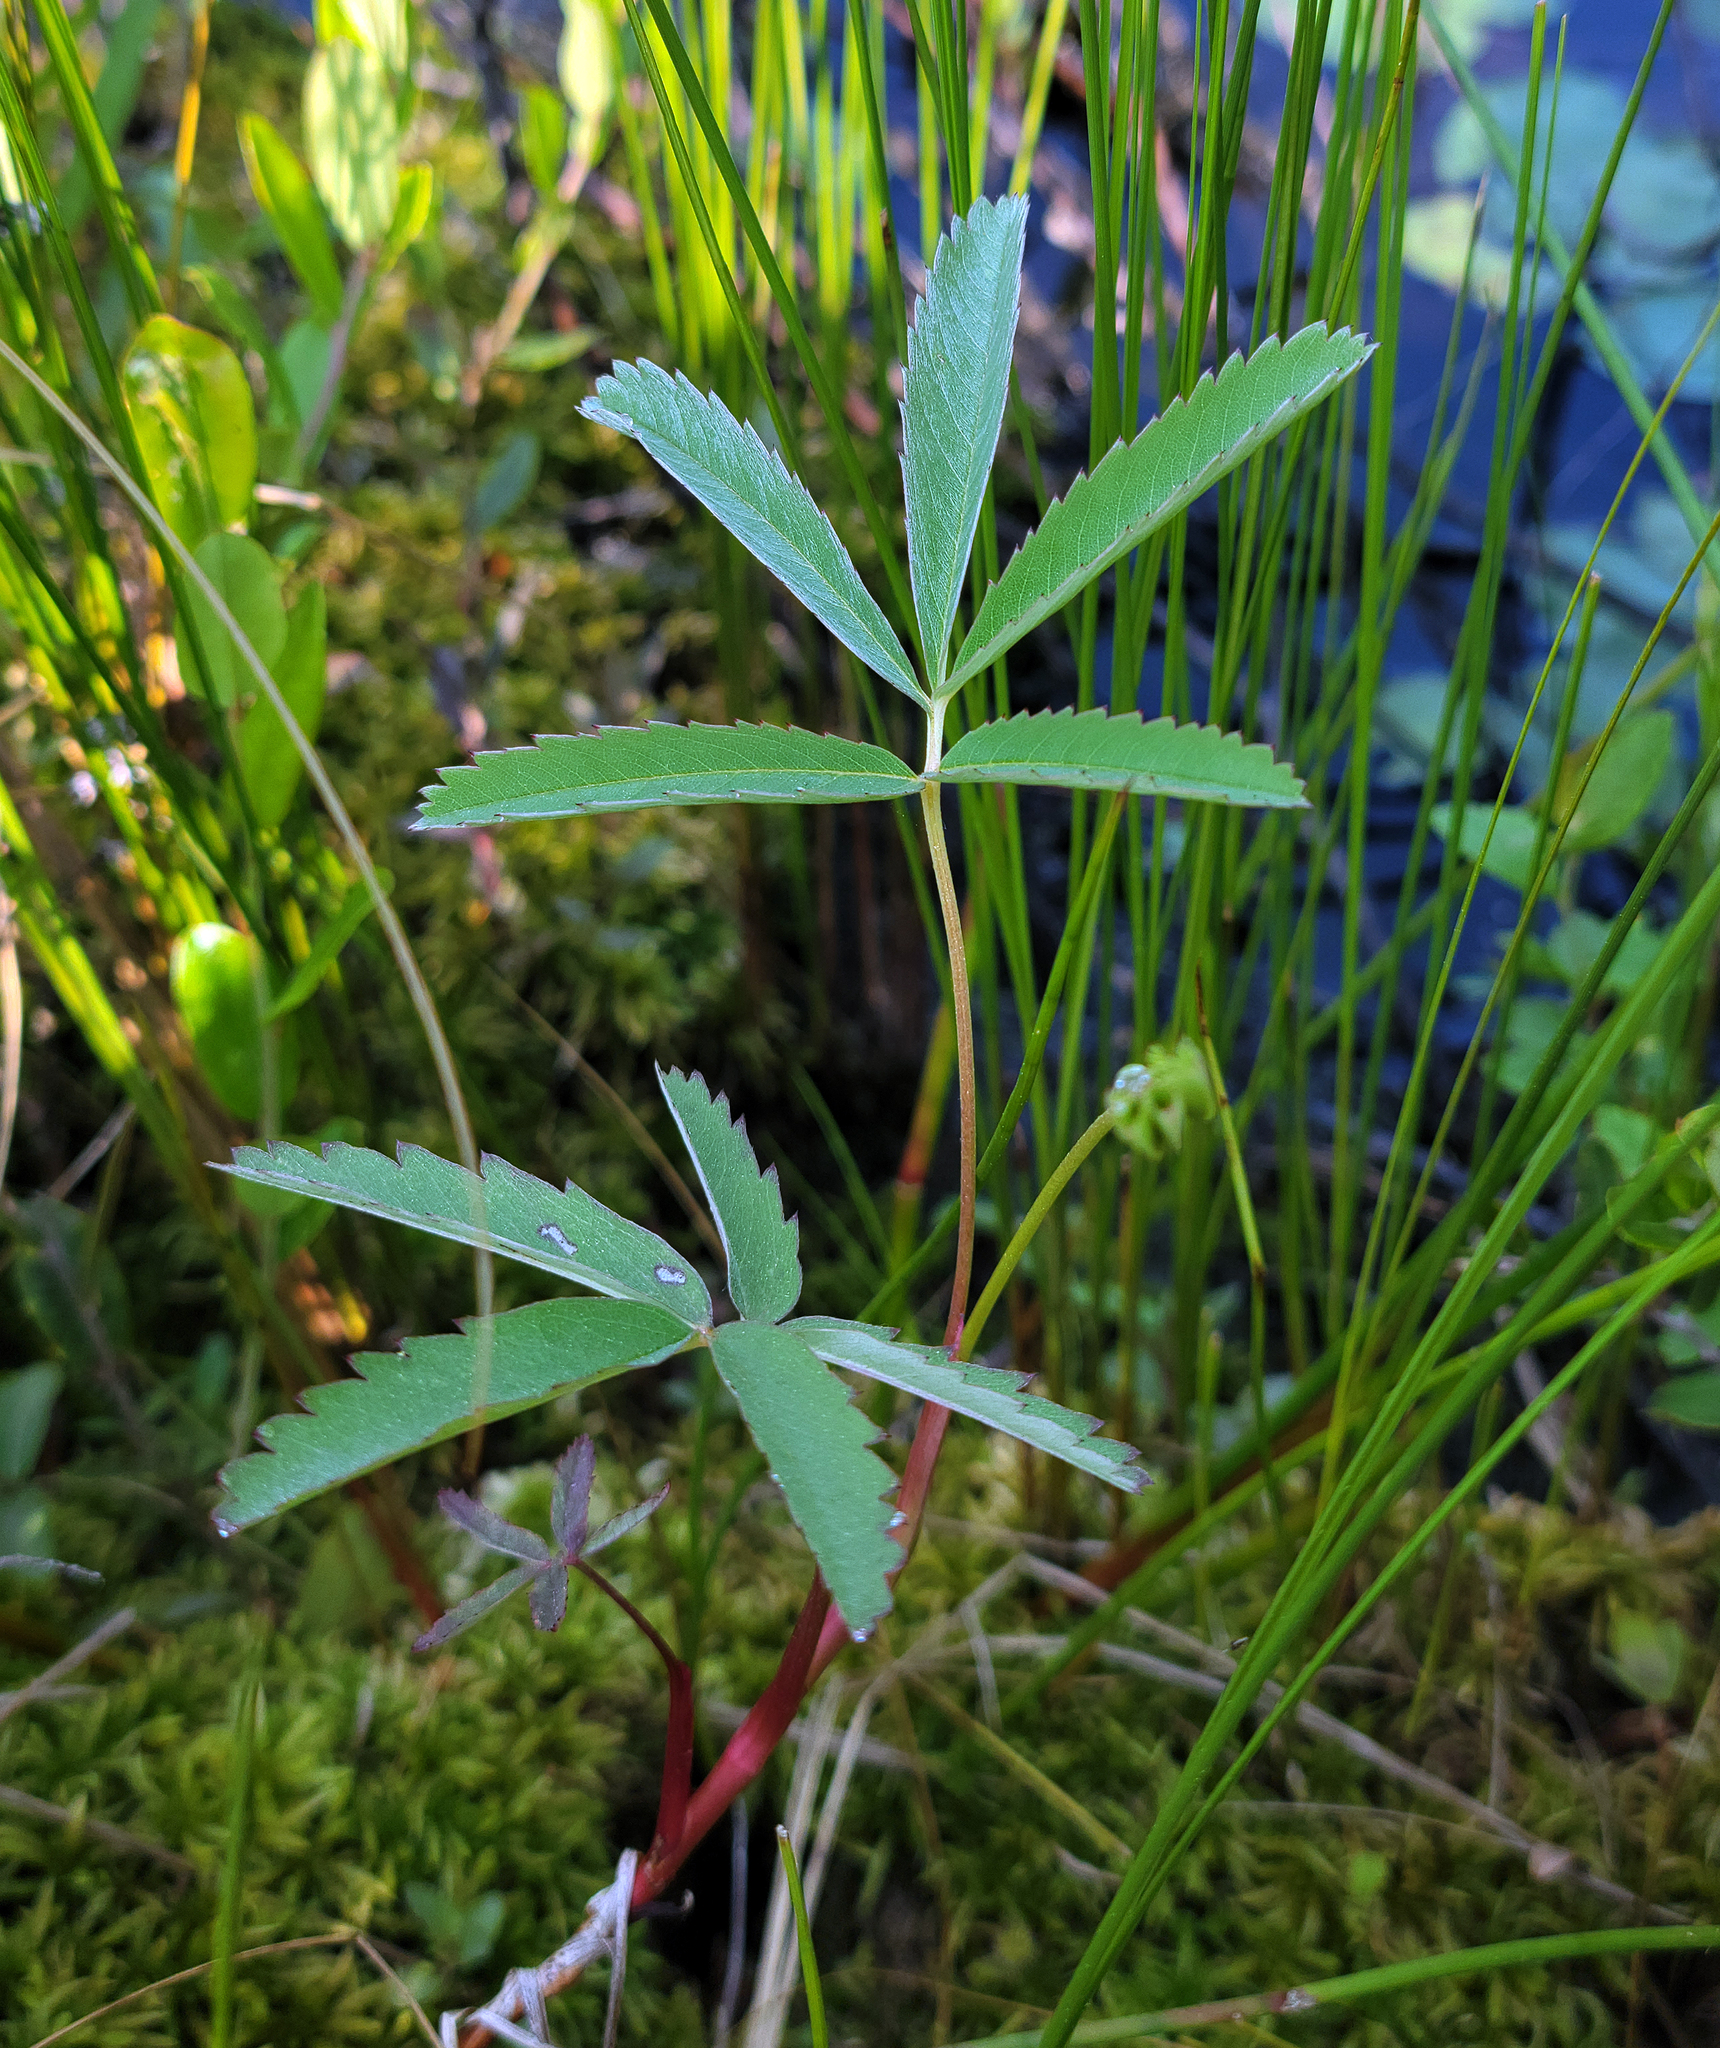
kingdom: Plantae
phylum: Tracheophyta
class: Magnoliopsida
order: Rosales
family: Rosaceae
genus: Comarum
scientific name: Comarum palustre
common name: Marsh cinquefoil
